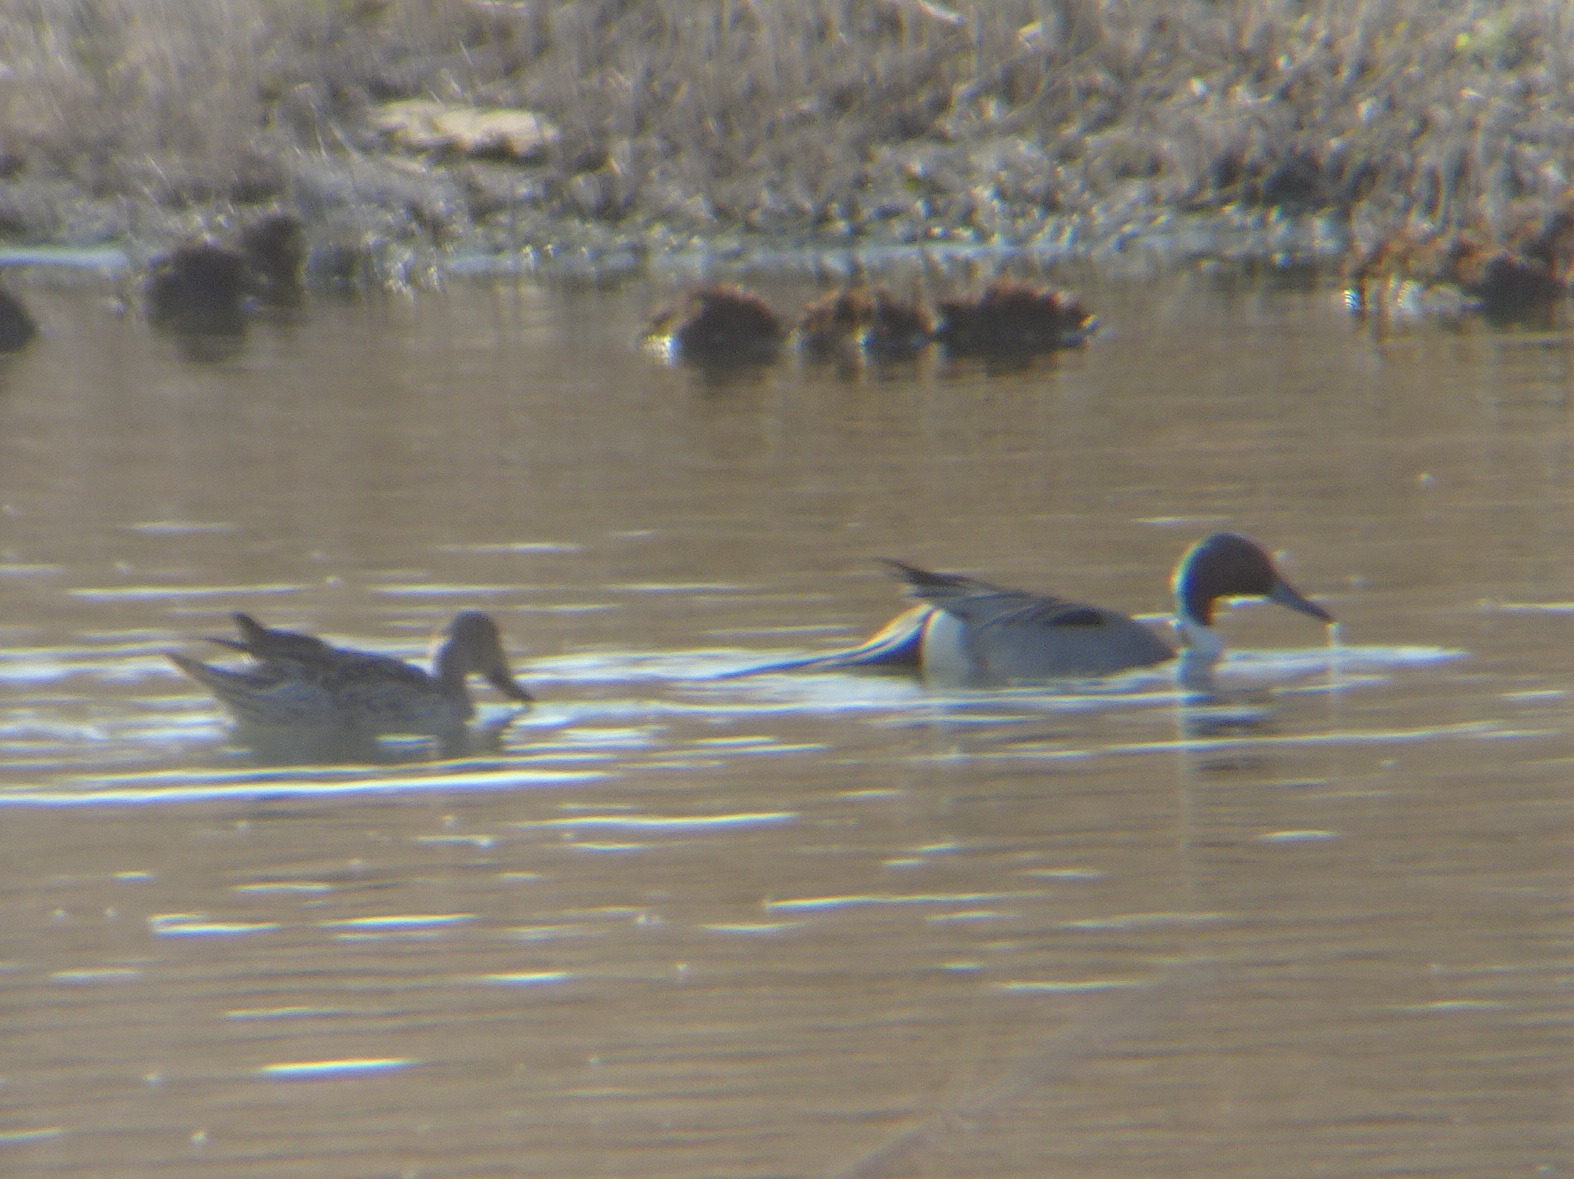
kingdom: Animalia
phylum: Chordata
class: Aves
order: Anseriformes
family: Anatidae
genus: Anas
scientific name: Anas acuta
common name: Northern pintail
